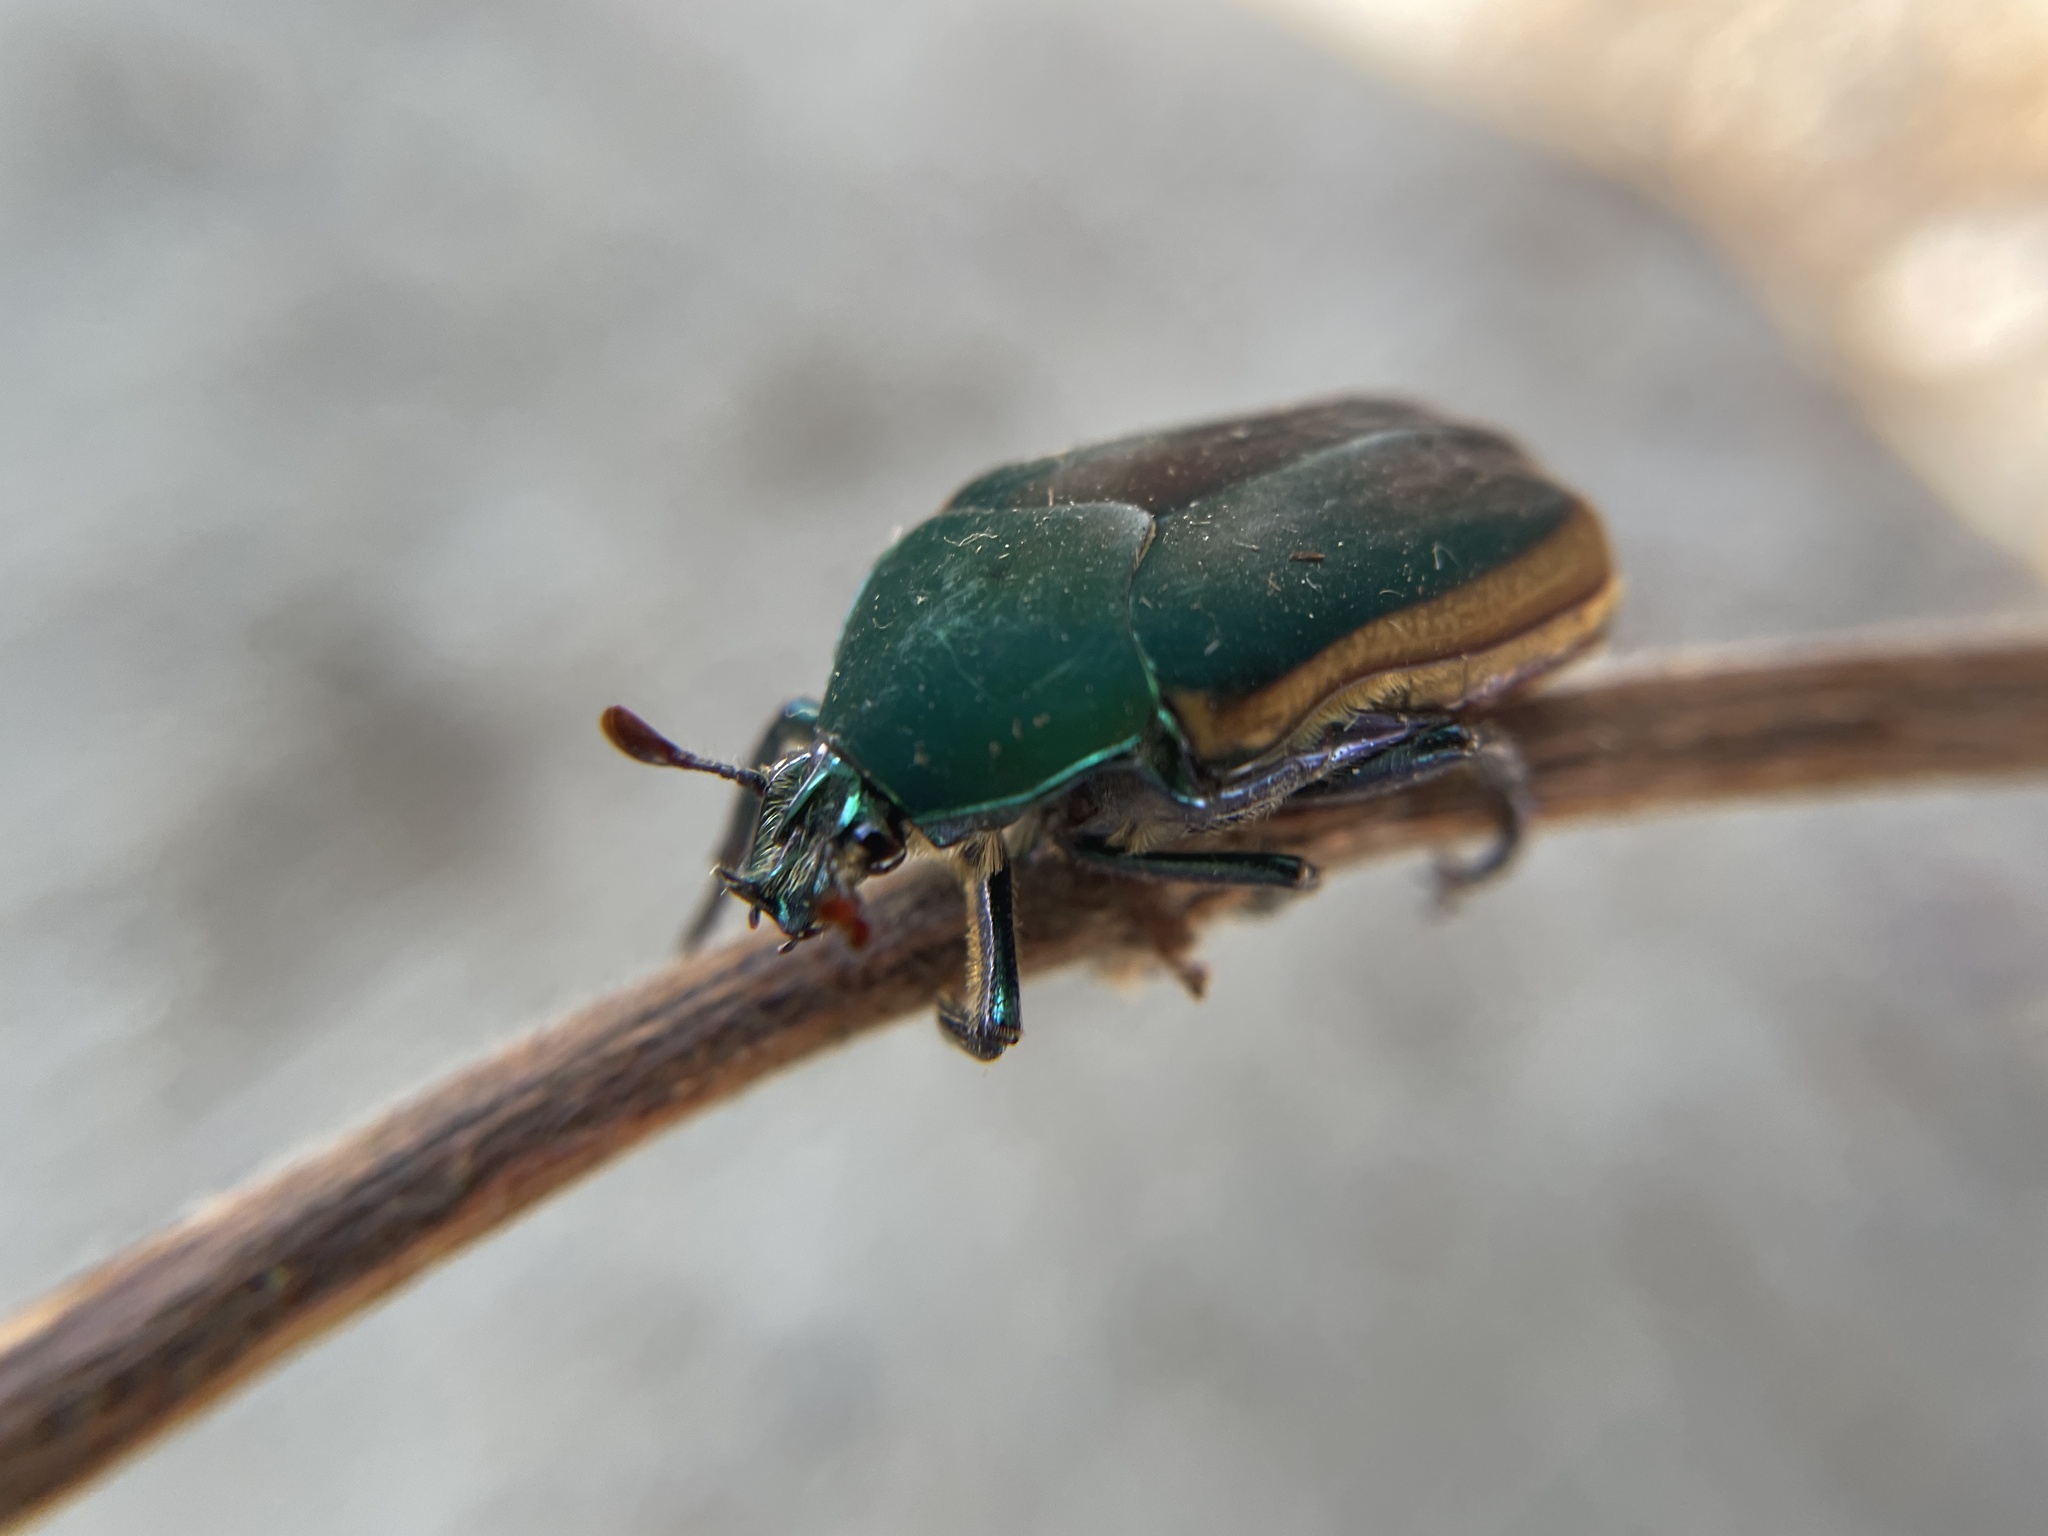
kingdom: Animalia
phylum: Arthropoda
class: Insecta
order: Coleoptera
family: Scarabaeidae
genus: Cotinis
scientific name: Cotinis mutabilis
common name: Figeater beetle
